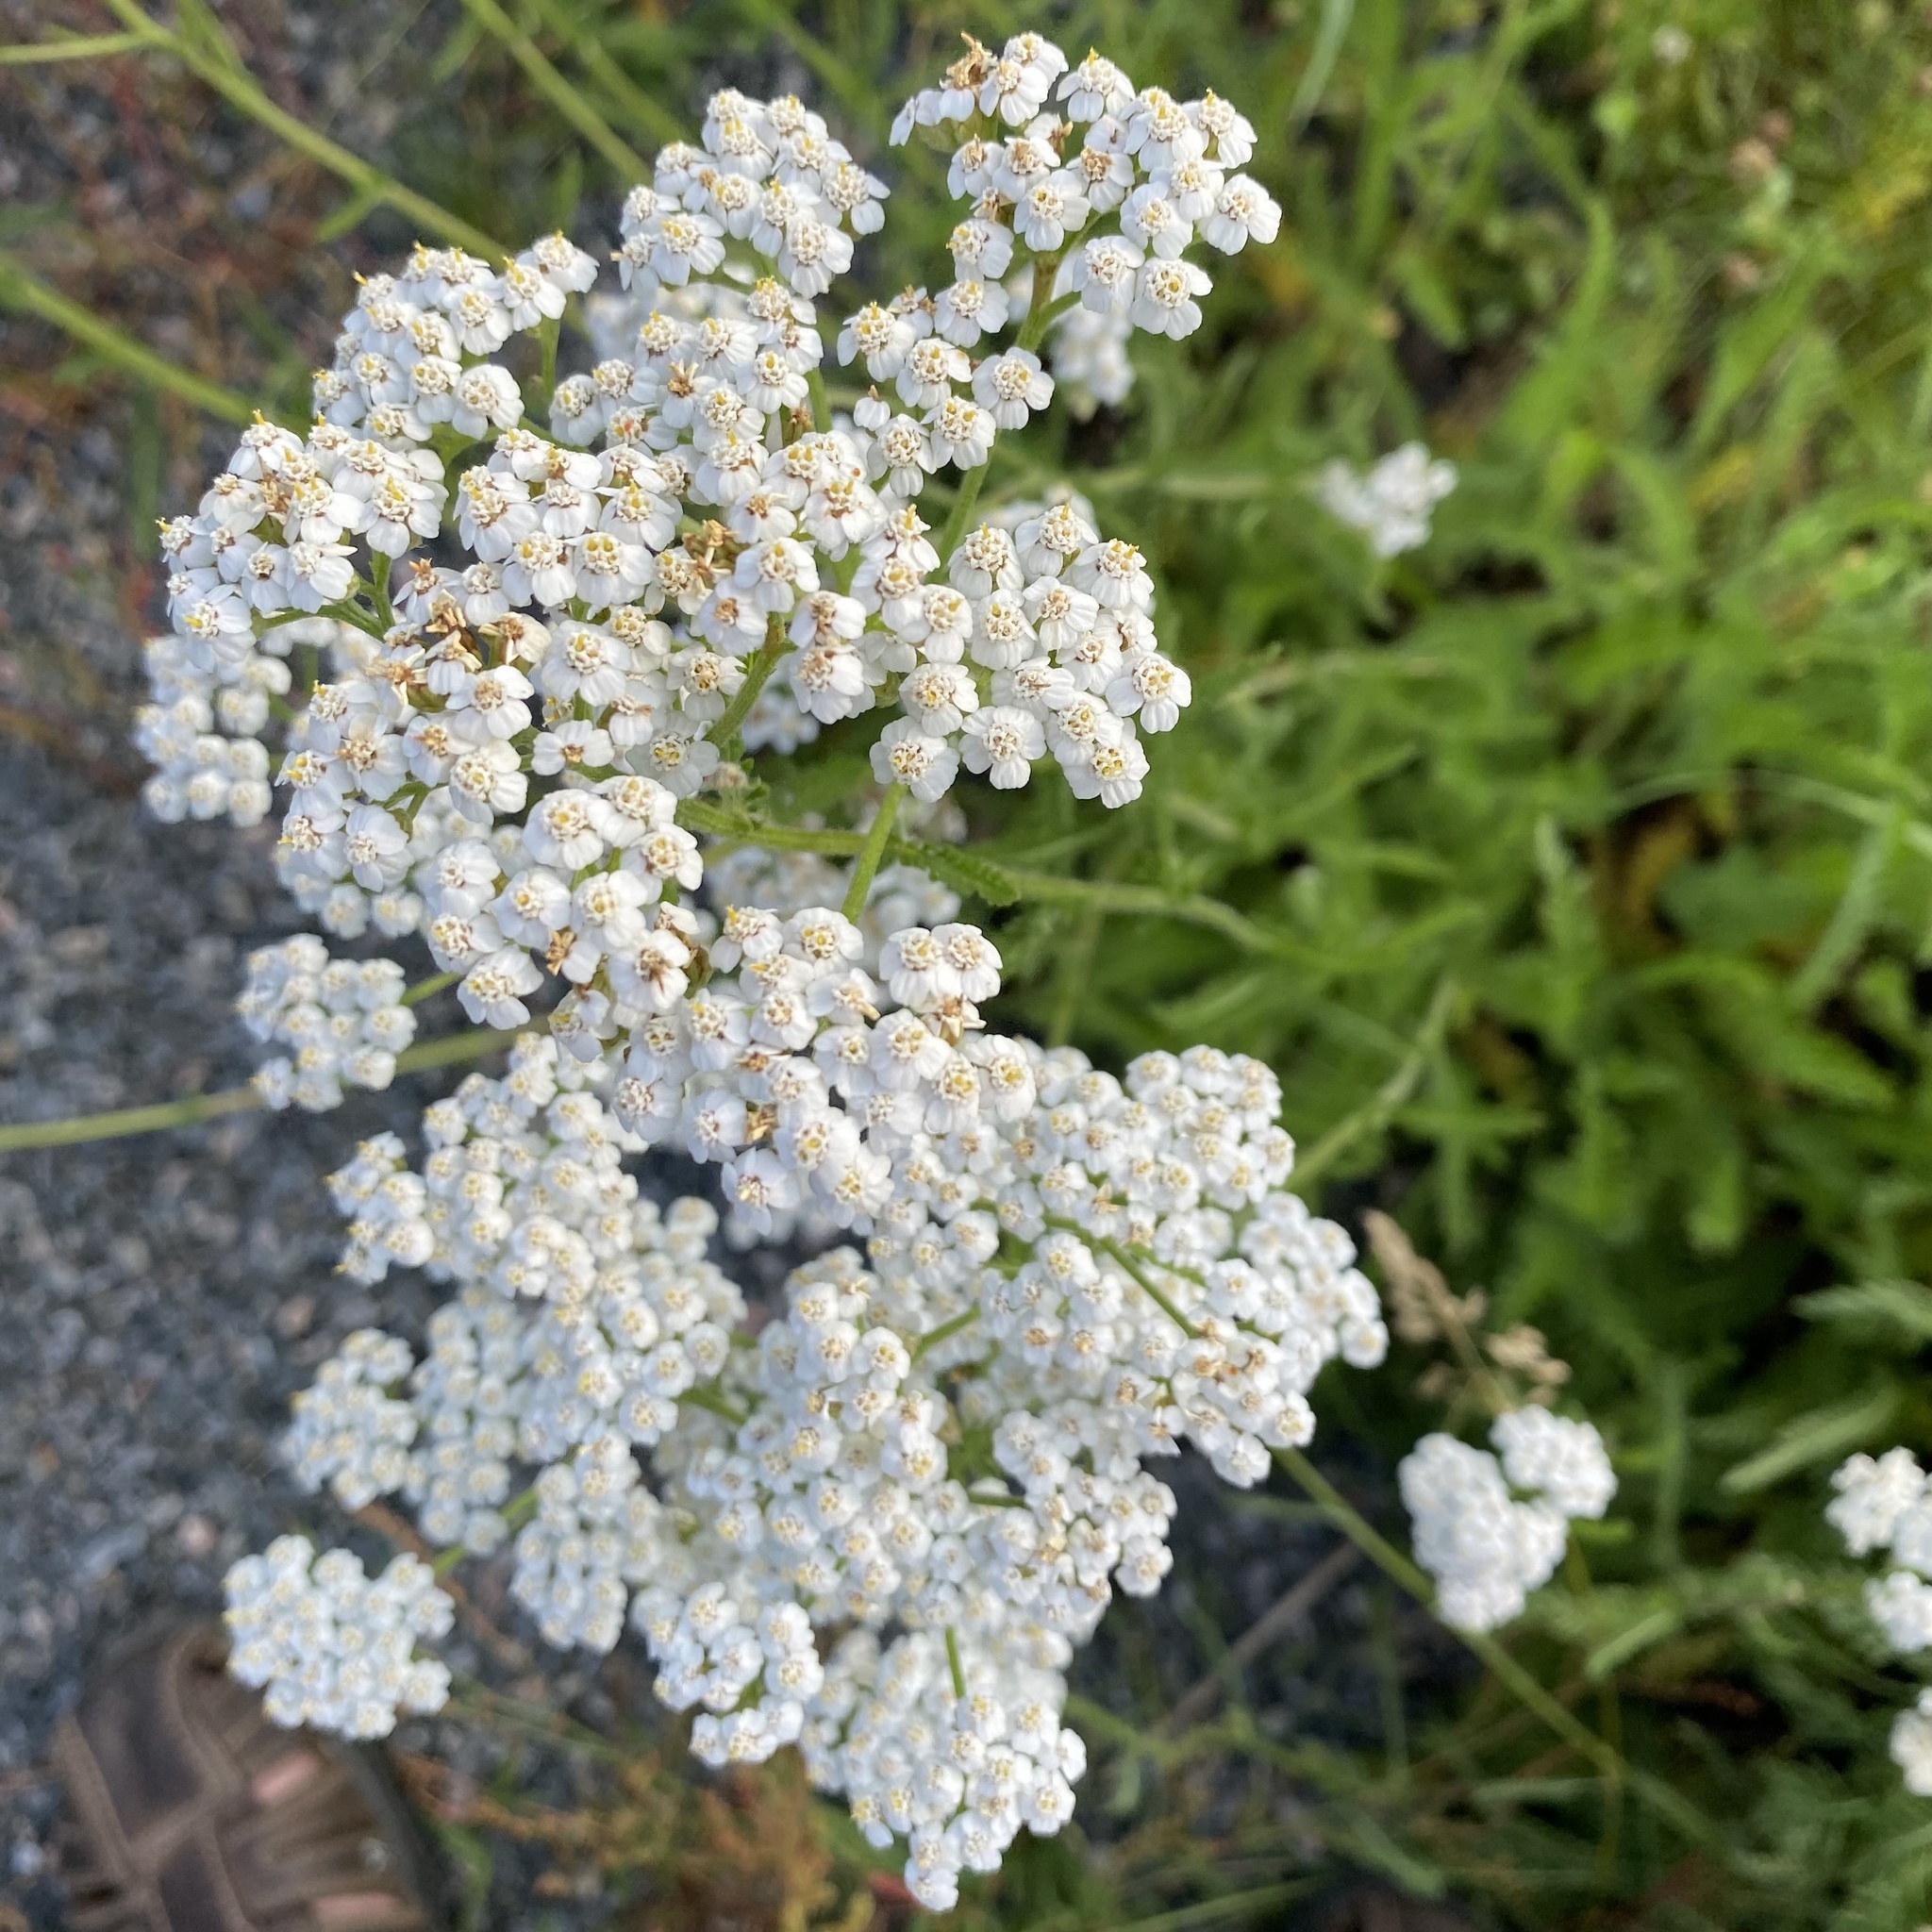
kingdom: Plantae
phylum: Tracheophyta
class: Magnoliopsida
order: Asterales
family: Asteraceae
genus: Achillea
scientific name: Achillea millefolium
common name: Yarrow
